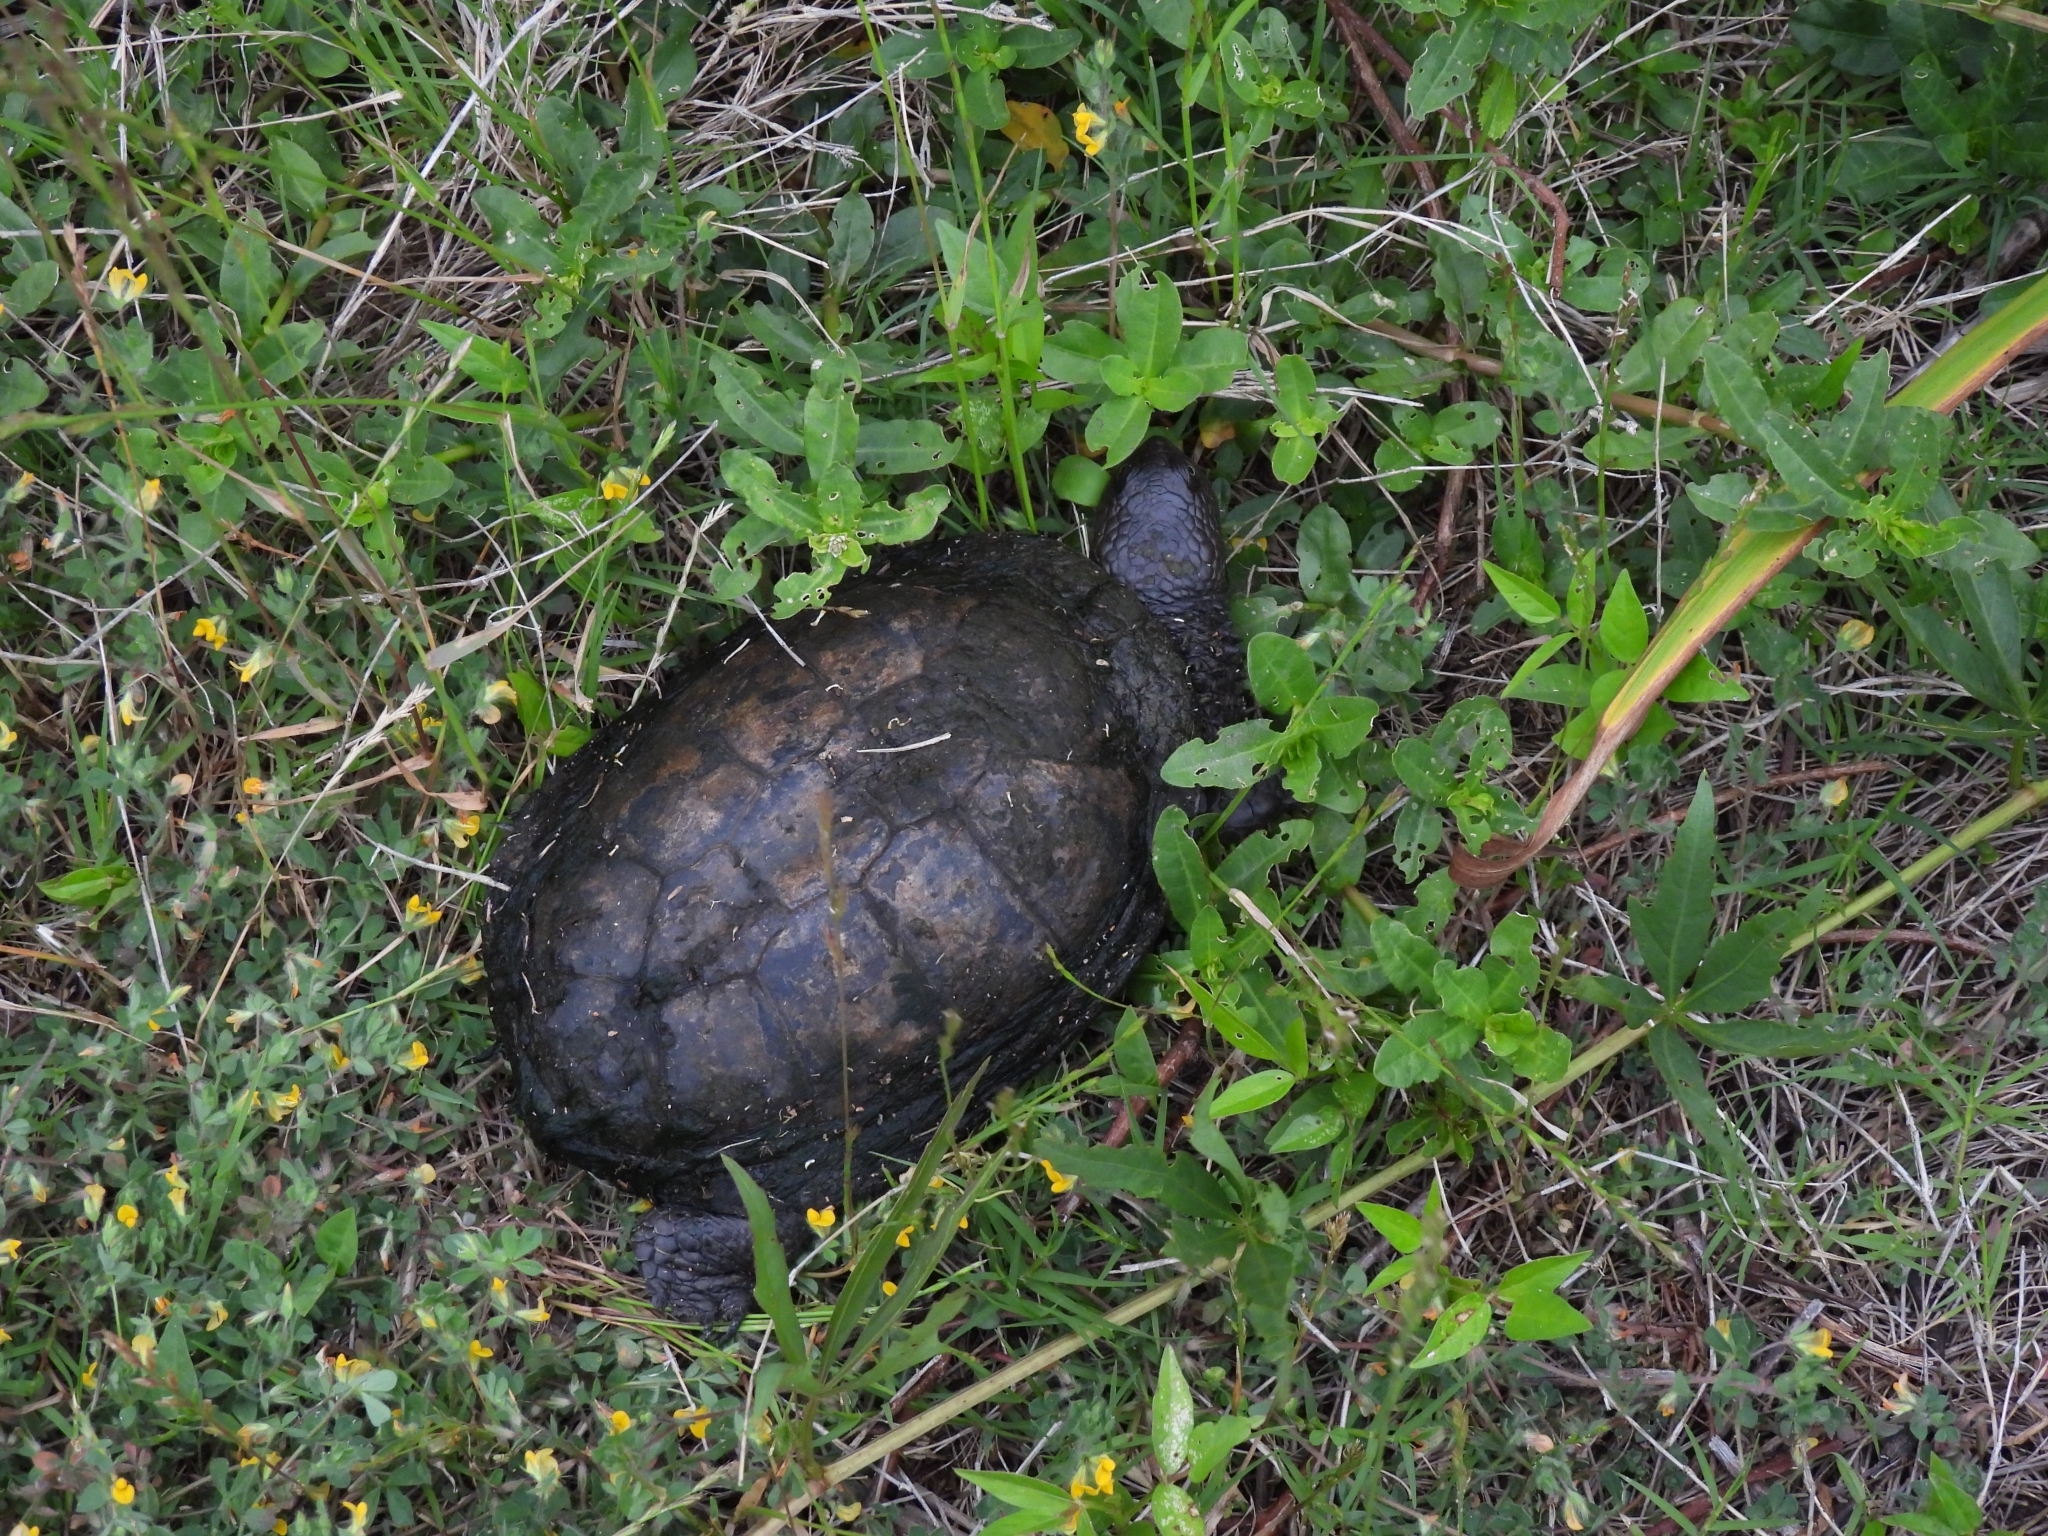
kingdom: Animalia
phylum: Chordata
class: Testudines
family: Chelidae
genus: Acanthochelys
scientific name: Acanthochelys spixii
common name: Black spine-neck swamp turtle
